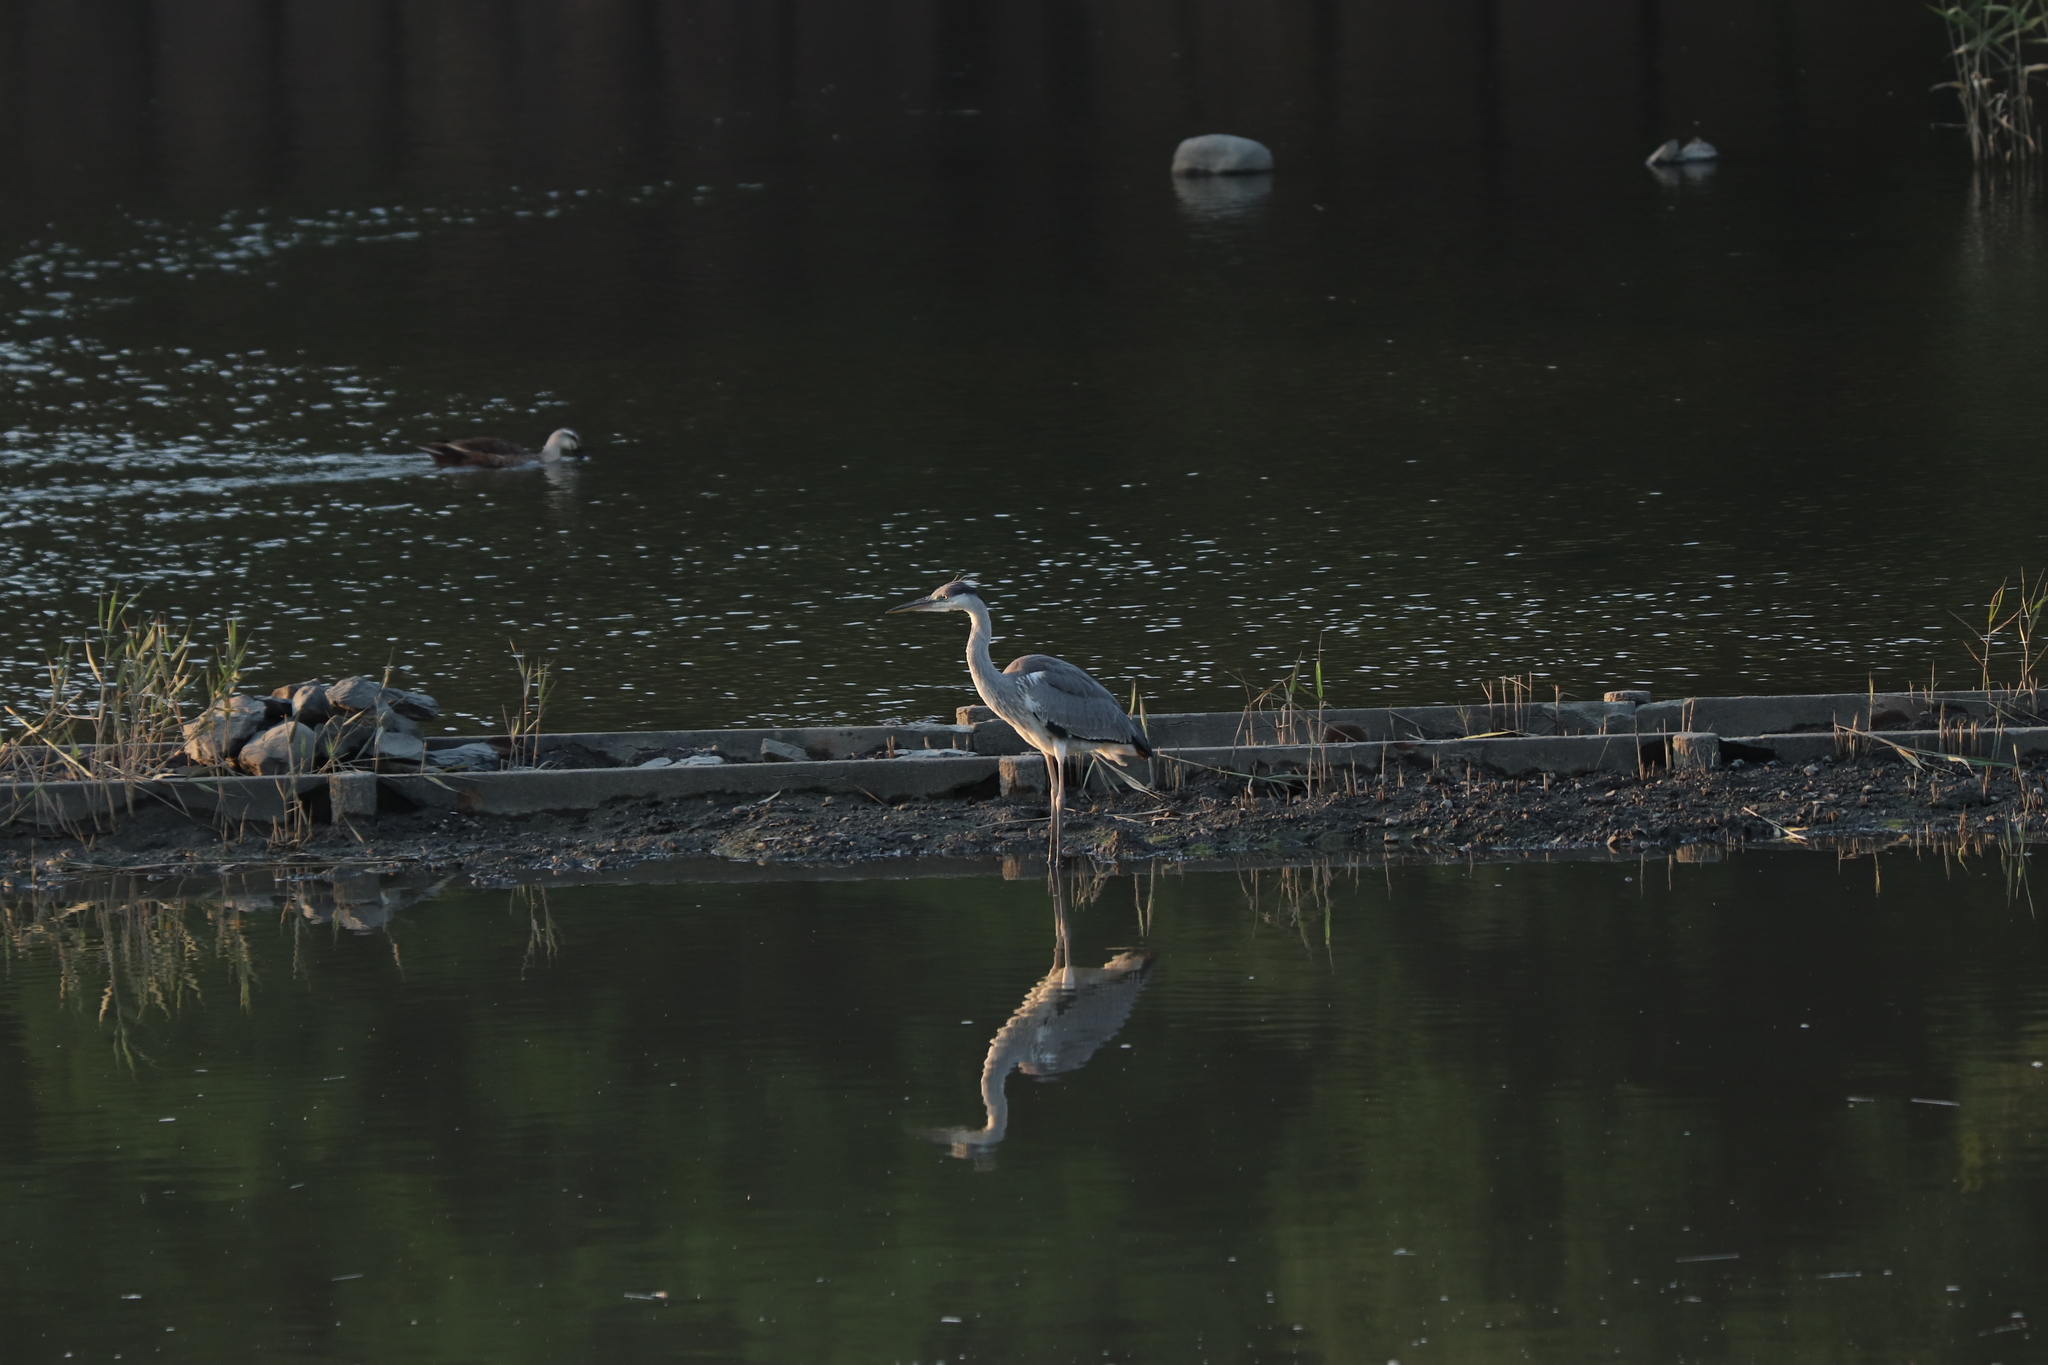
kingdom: Animalia
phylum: Chordata
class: Aves
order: Pelecaniformes
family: Ardeidae
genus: Ardea
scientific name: Ardea cinerea
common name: Grey heron
